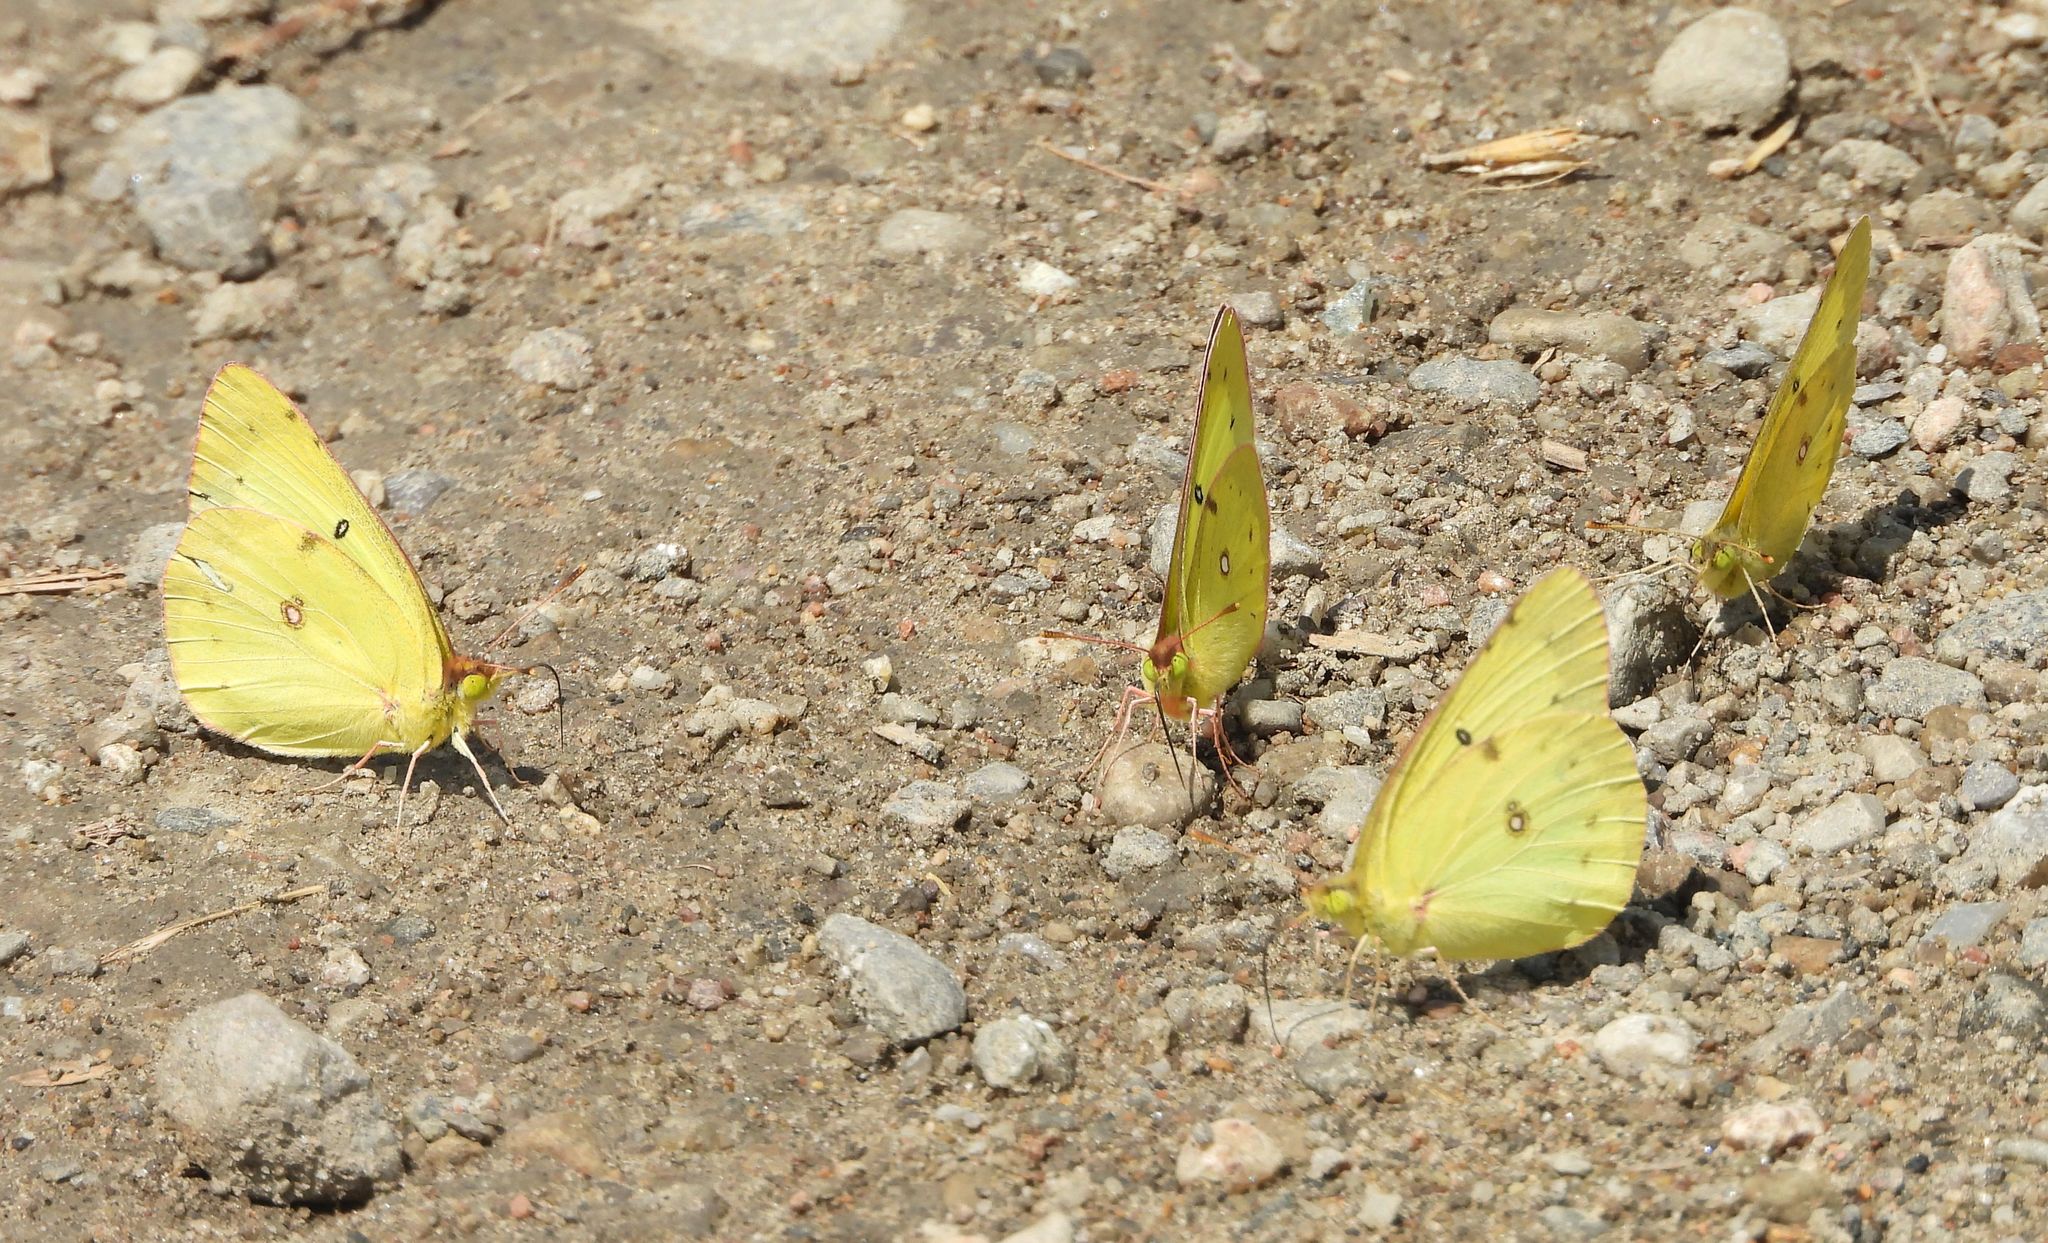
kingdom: Animalia
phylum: Arthropoda
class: Insecta
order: Lepidoptera
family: Pieridae
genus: Colias
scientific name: Colias philodice
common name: Clouded sulphur
